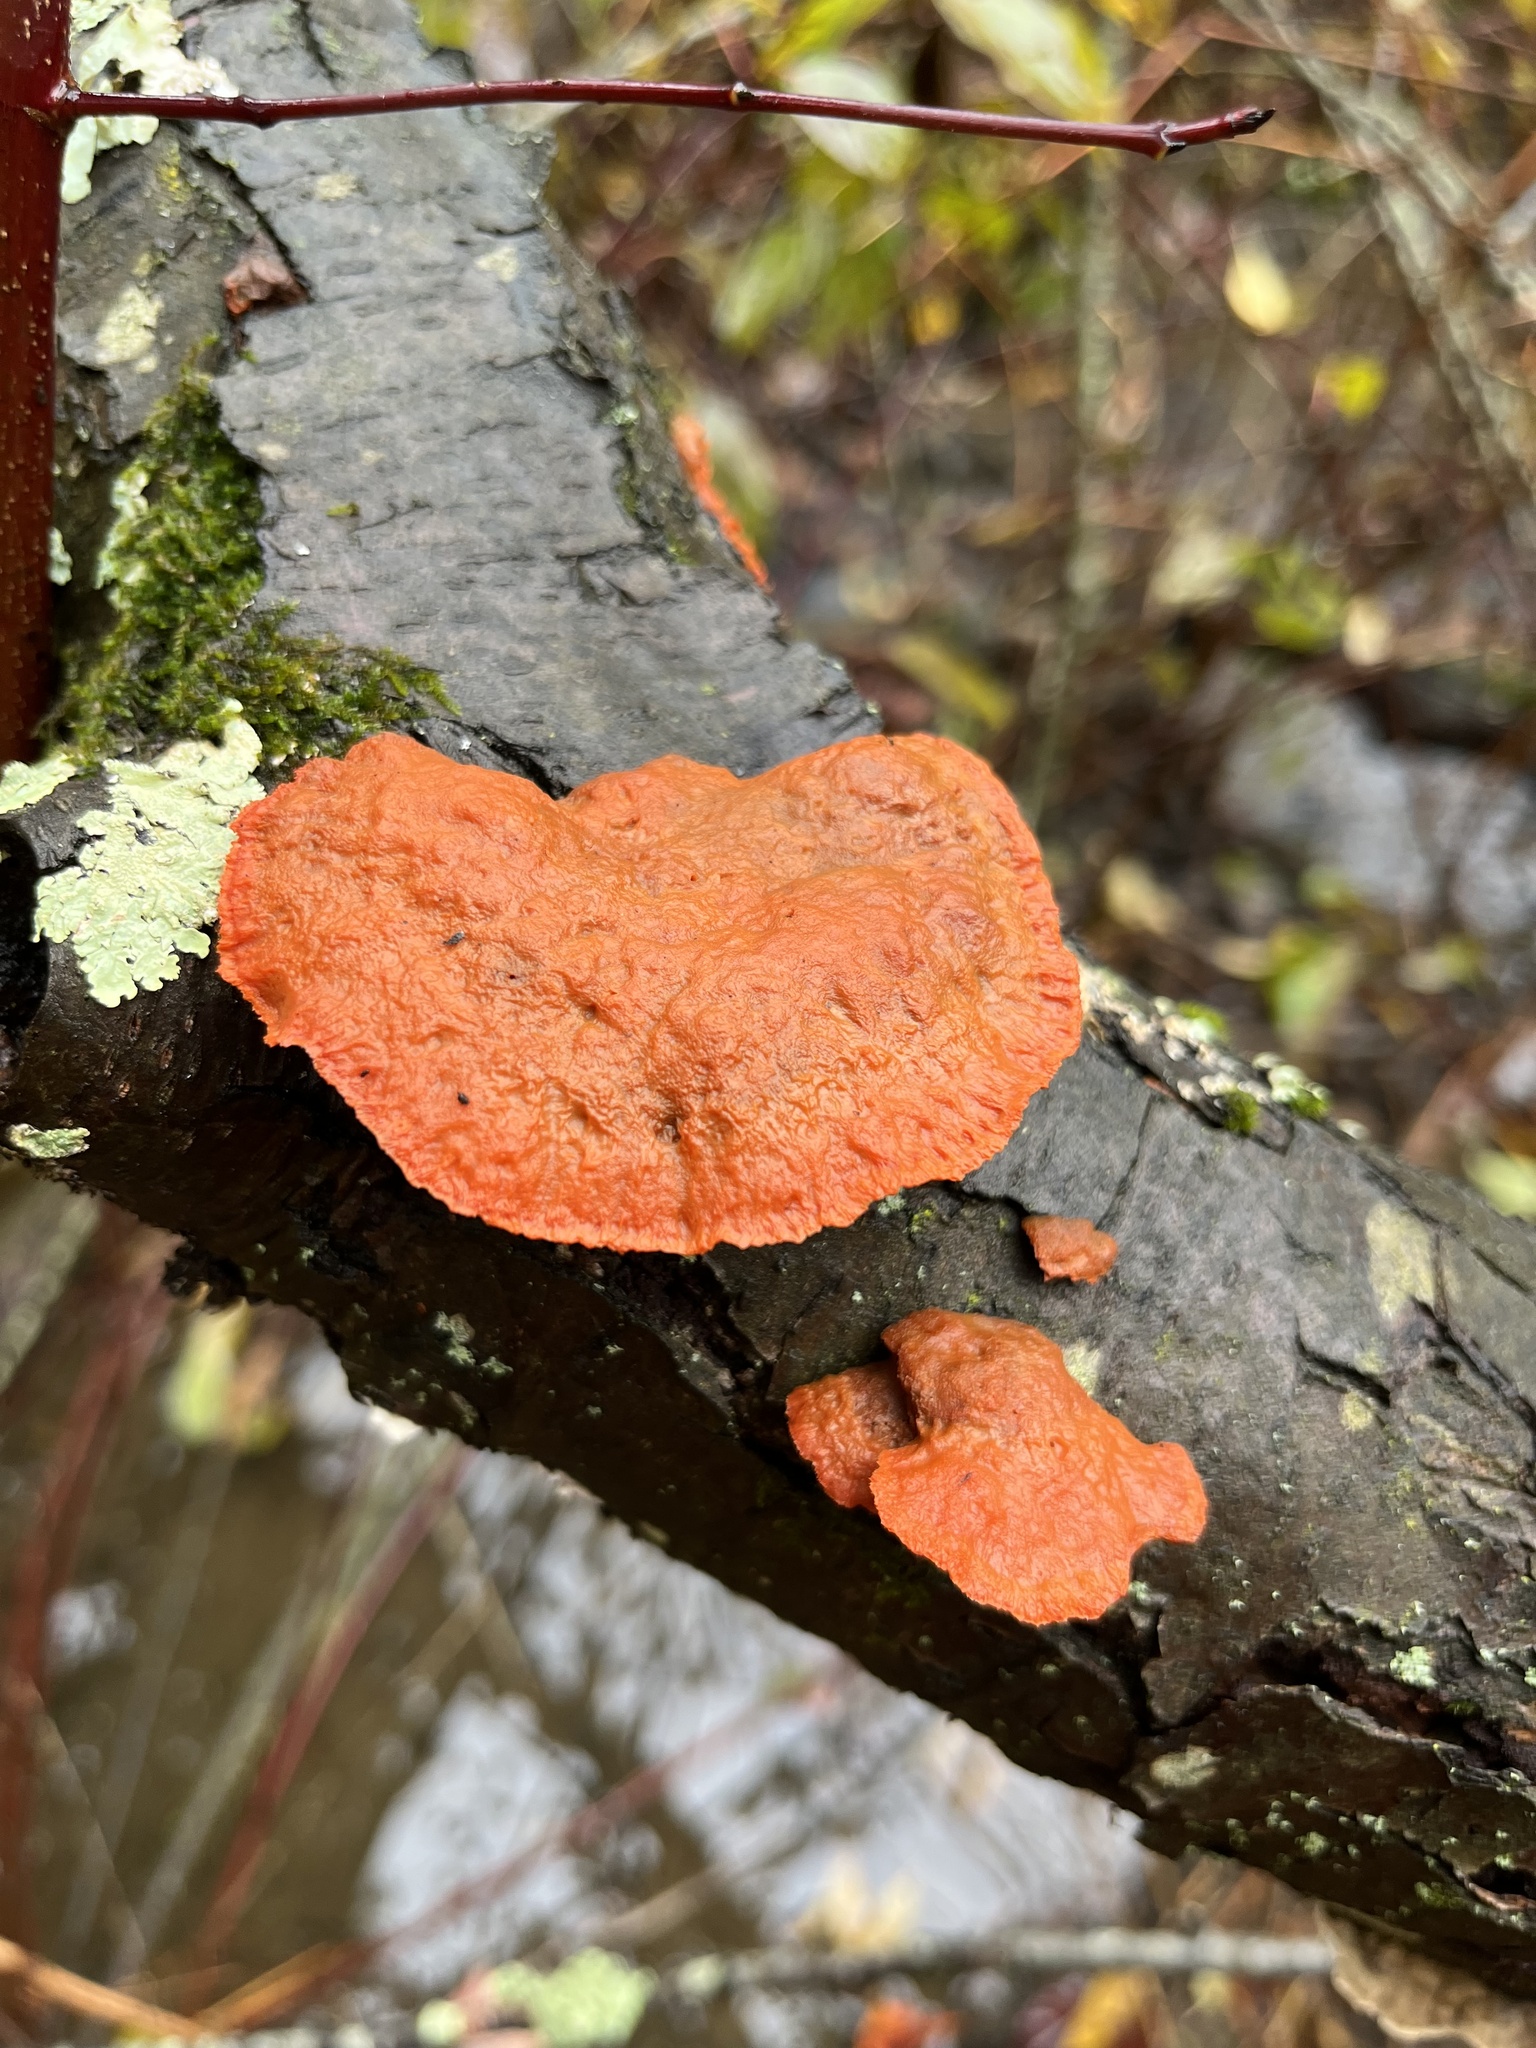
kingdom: Fungi
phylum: Basidiomycota
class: Agaricomycetes
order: Polyporales
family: Polyporaceae
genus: Trametes
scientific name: Trametes cinnabarina
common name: Northern cinnabar polypore
